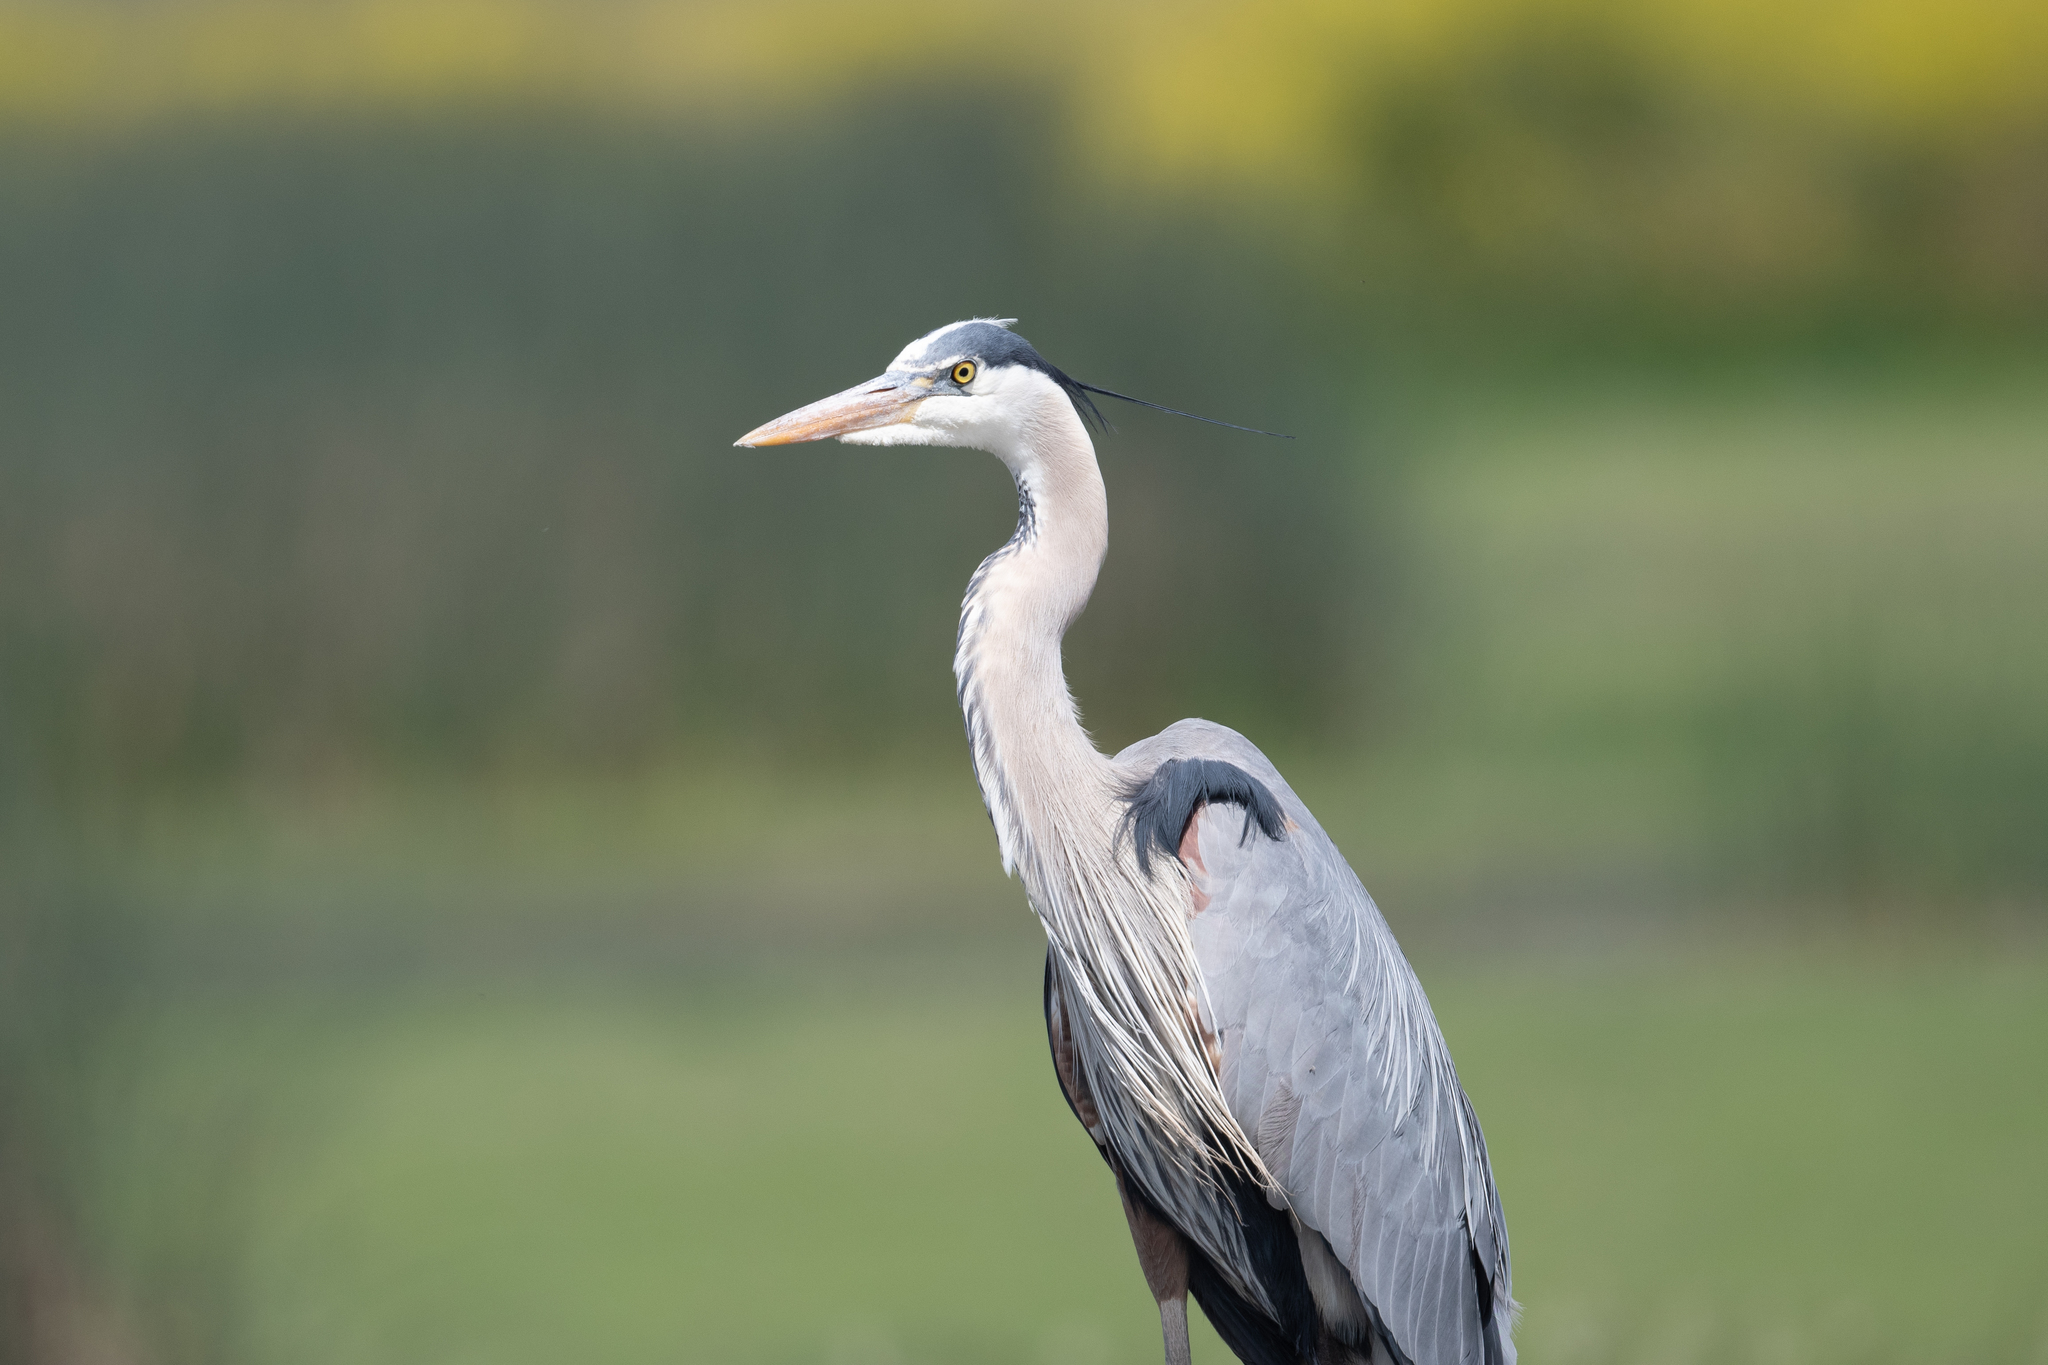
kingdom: Animalia
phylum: Chordata
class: Aves
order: Pelecaniformes
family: Ardeidae
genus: Ardea
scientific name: Ardea herodias
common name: Great blue heron
